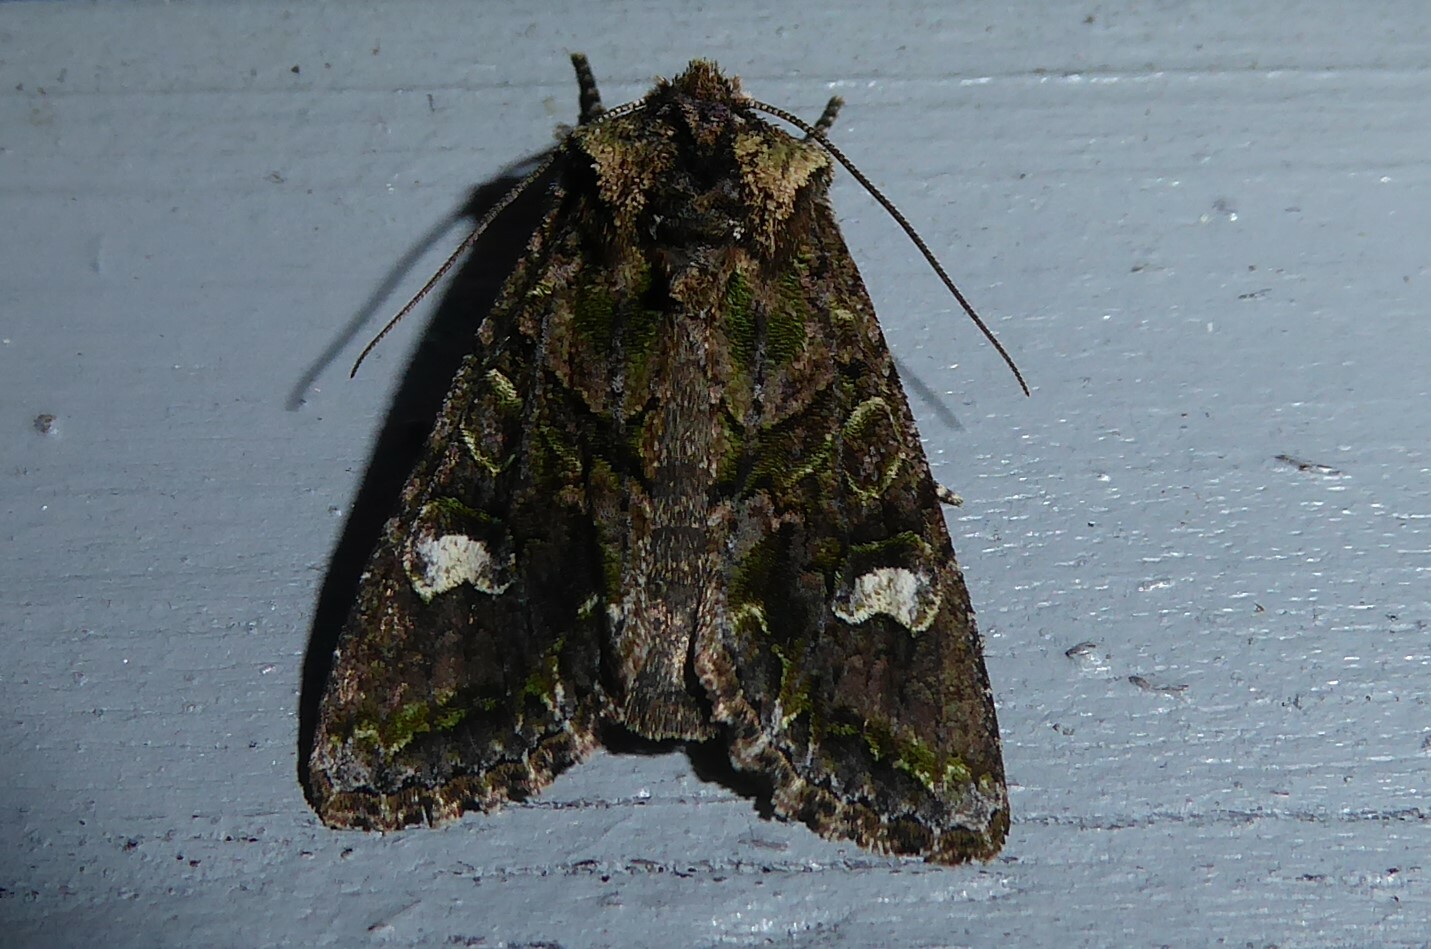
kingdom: Animalia
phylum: Arthropoda
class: Insecta
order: Lepidoptera
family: Noctuidae
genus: Ichneutica
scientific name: Ichneutica
